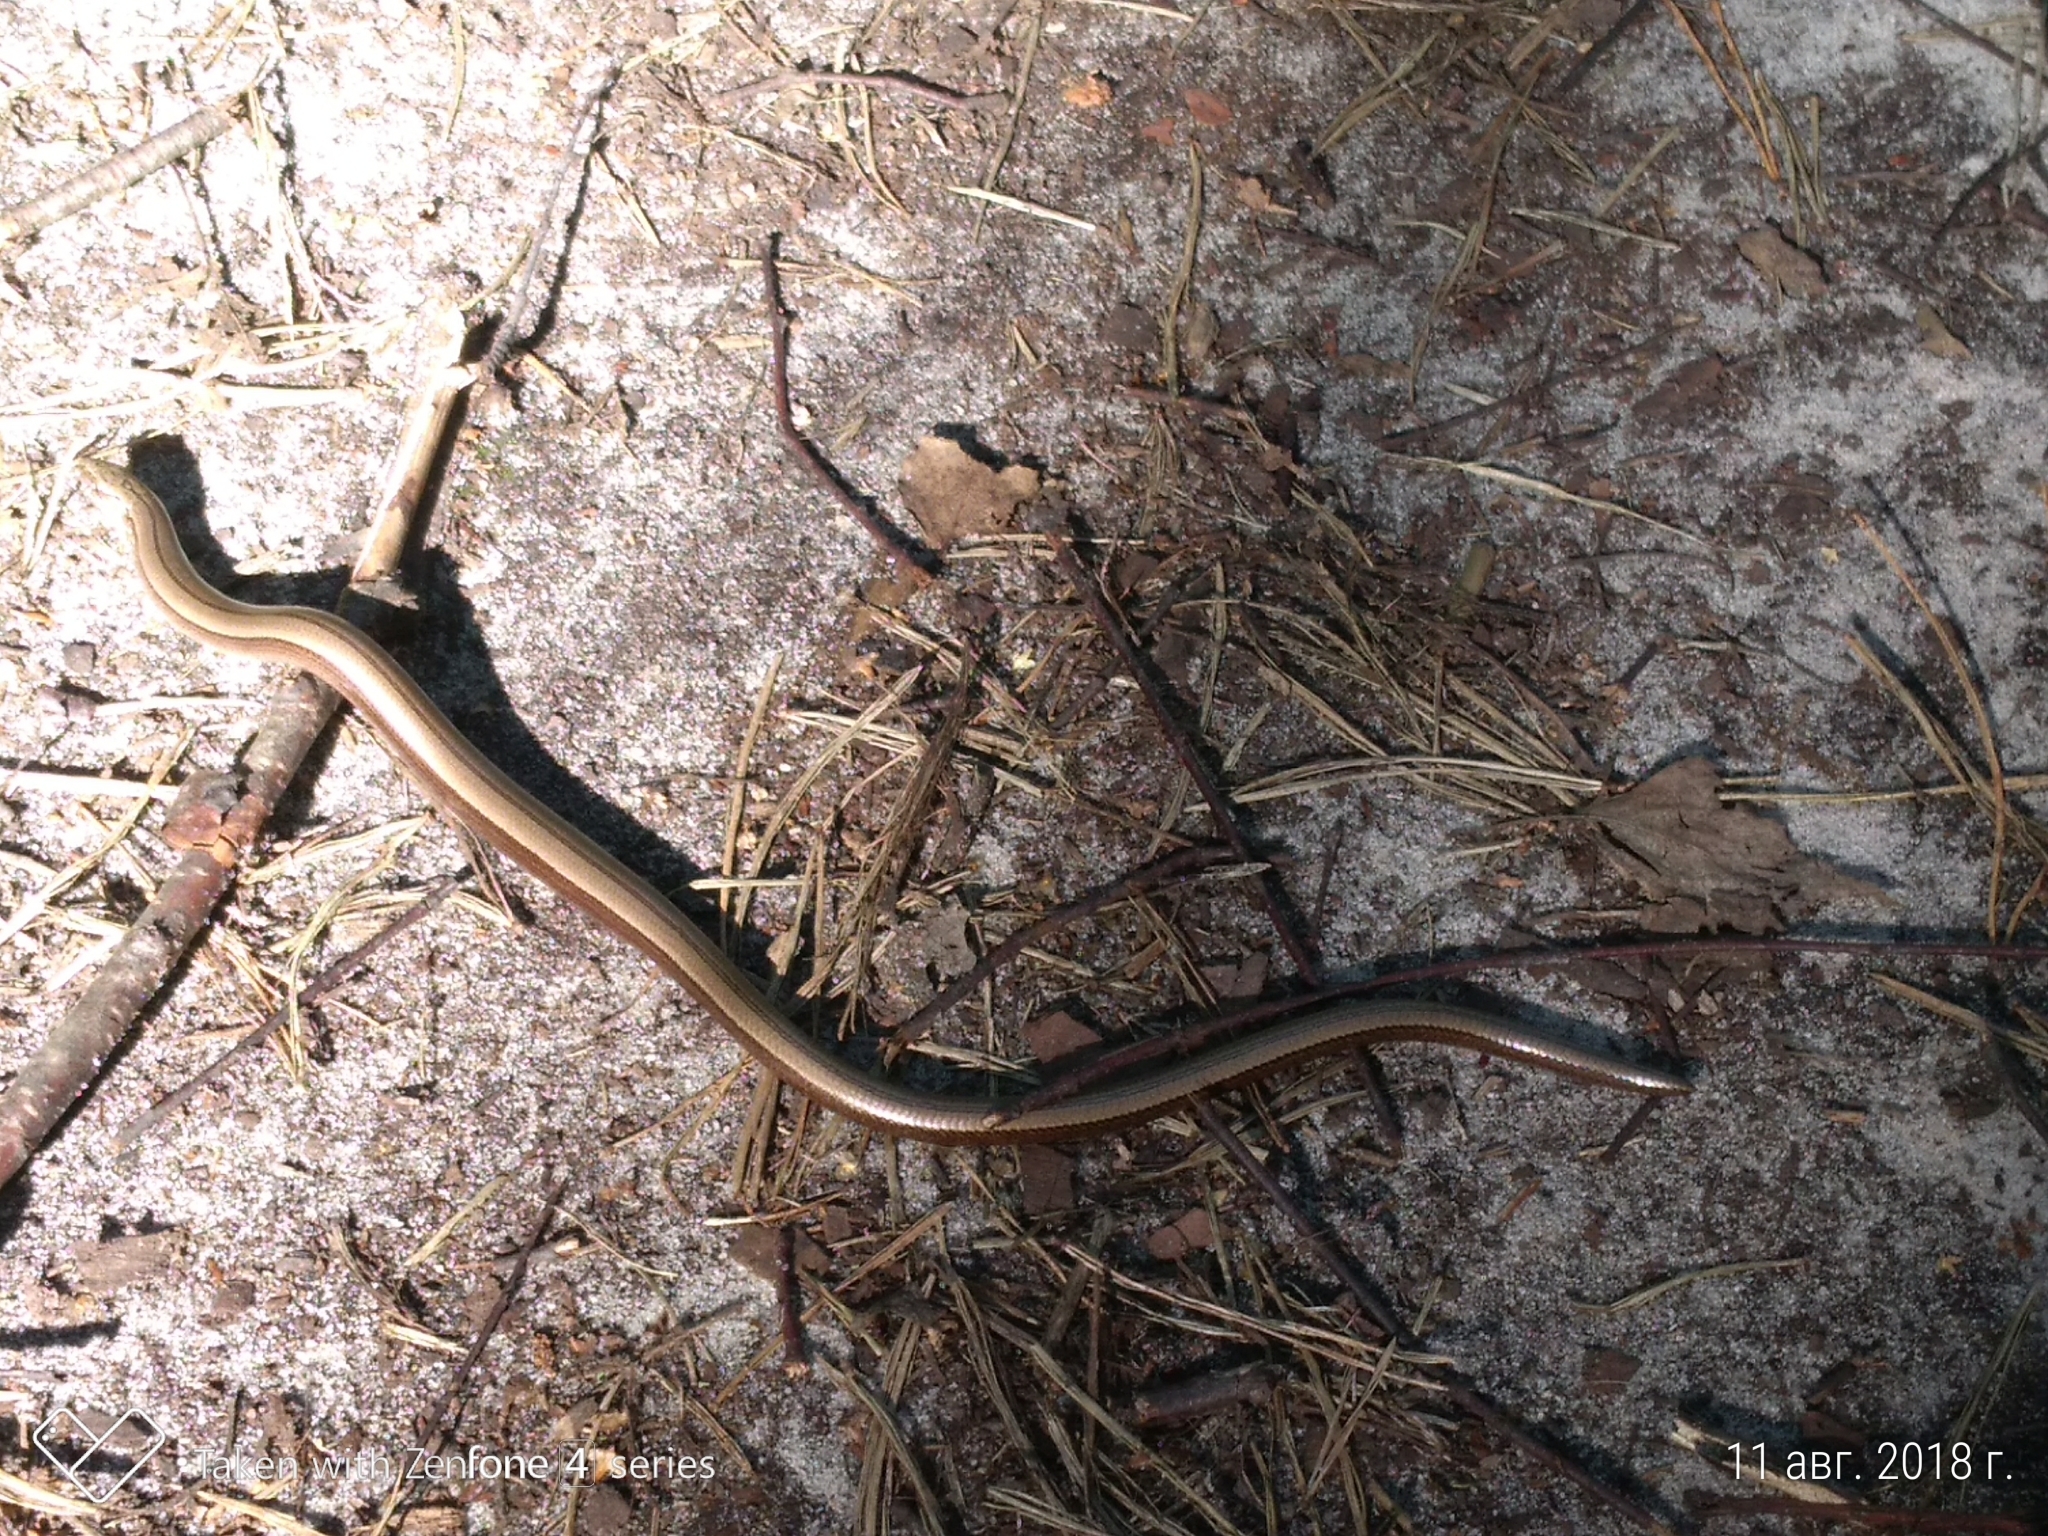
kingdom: Animalia
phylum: Chordata
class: Squamata
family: Anguidae
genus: Anguis
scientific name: Anguis
